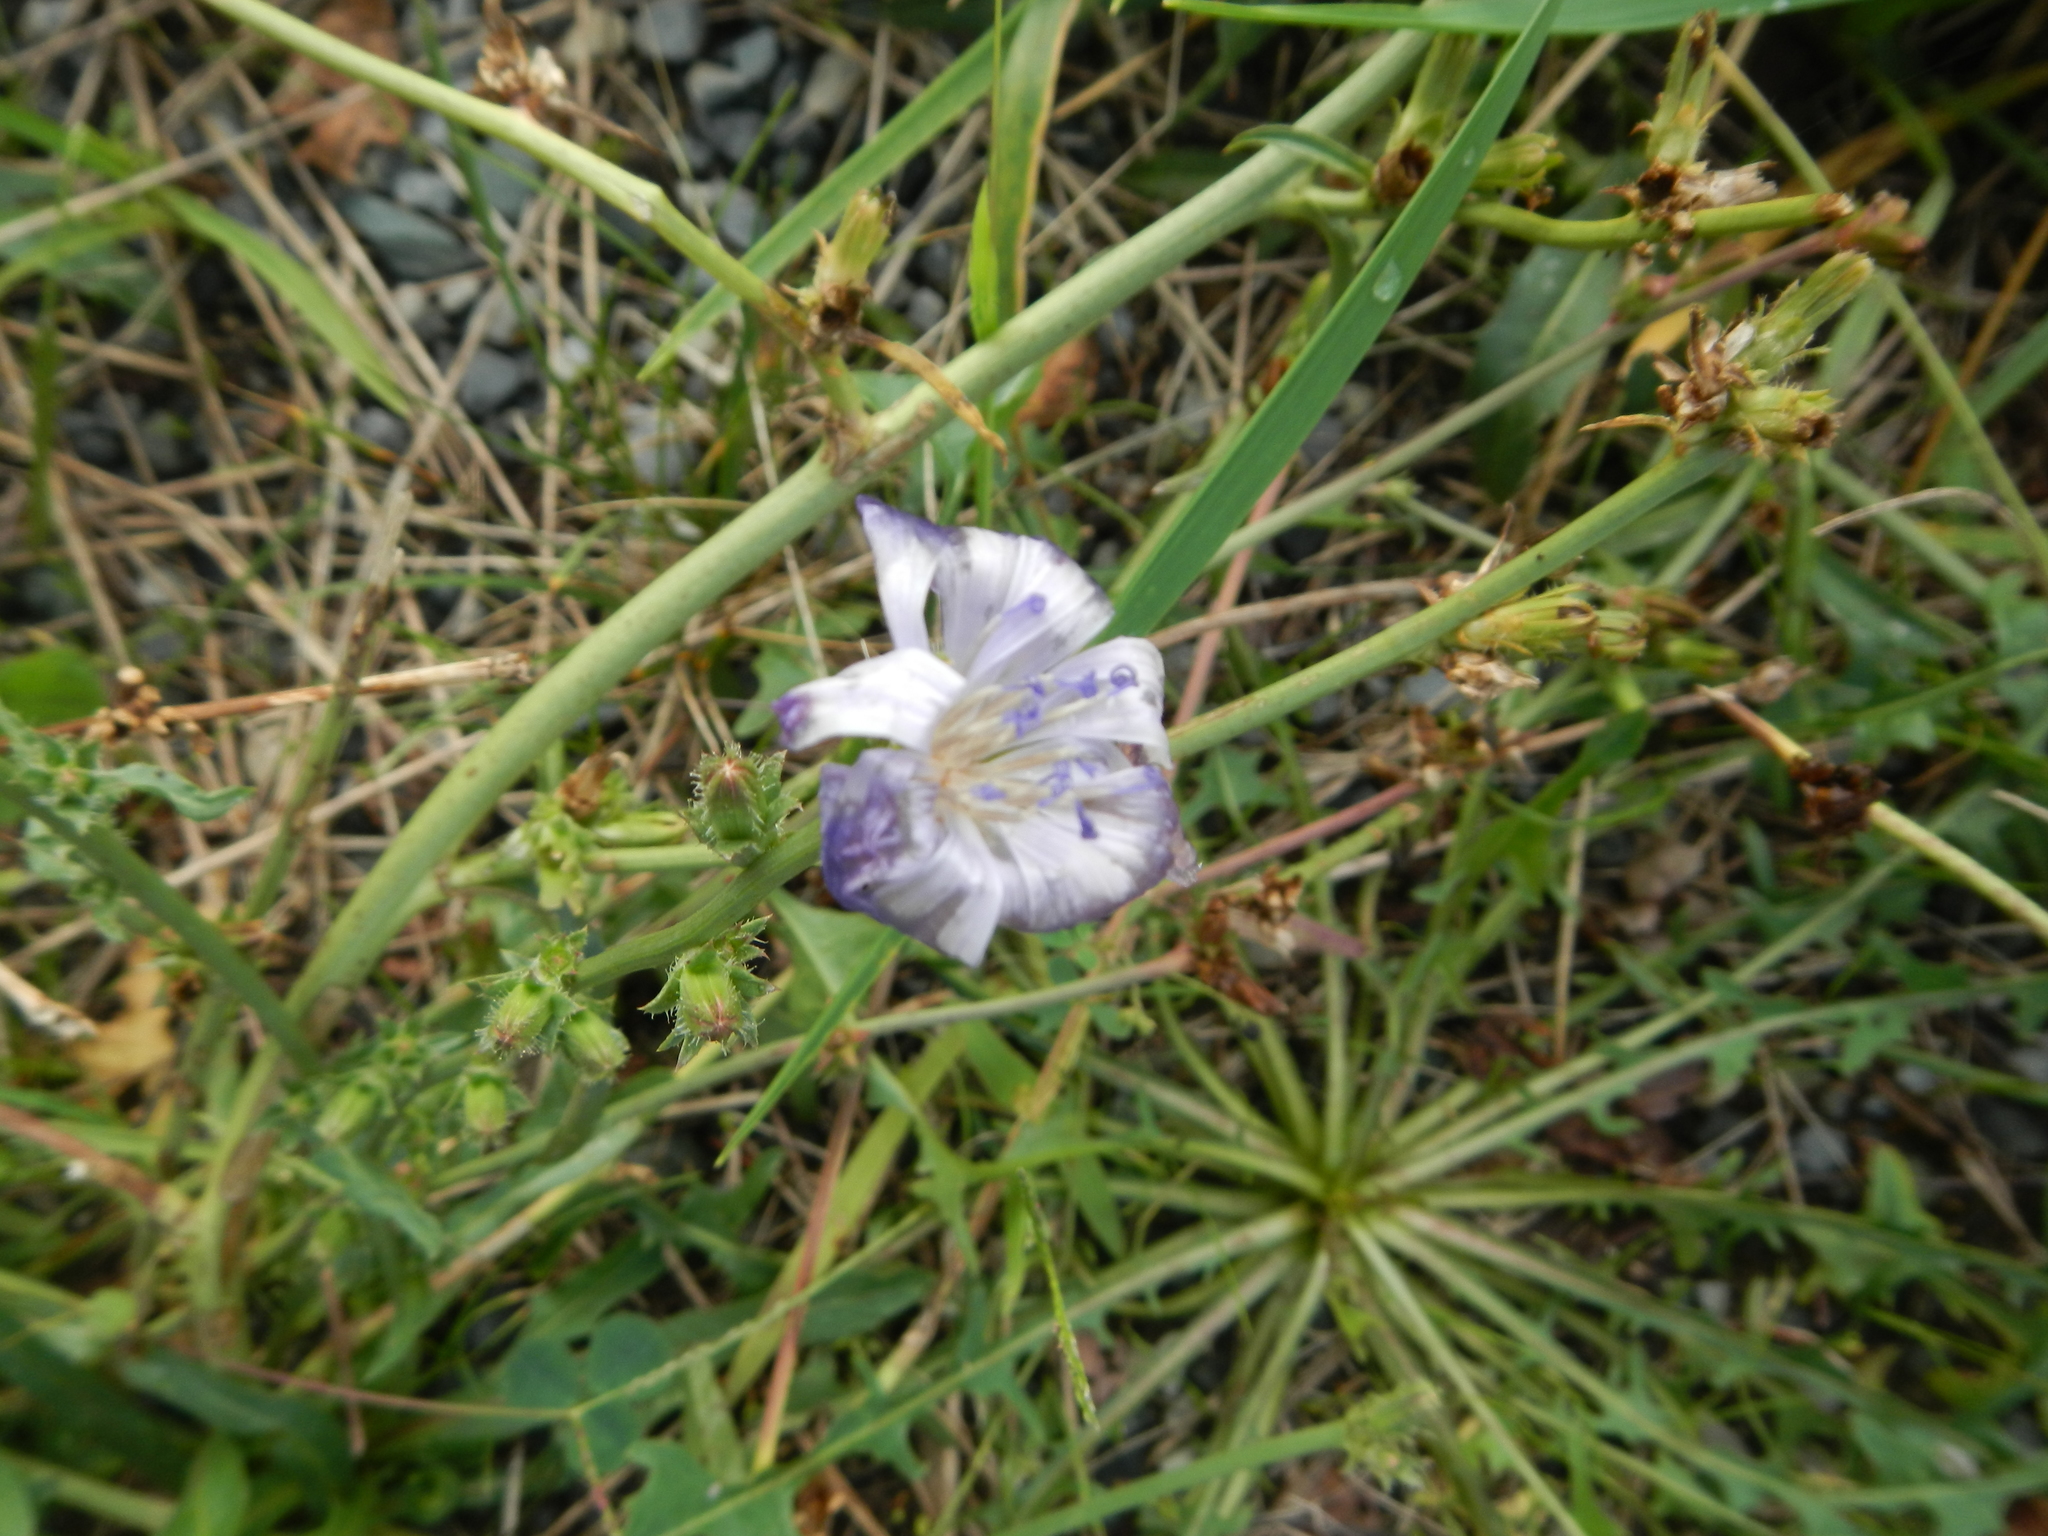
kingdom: Plantae
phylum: Tracheophyta
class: Magnoliopsida
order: Asterales
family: Asteraceae
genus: Cichorium
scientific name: Cichorium intybus
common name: Chicory
